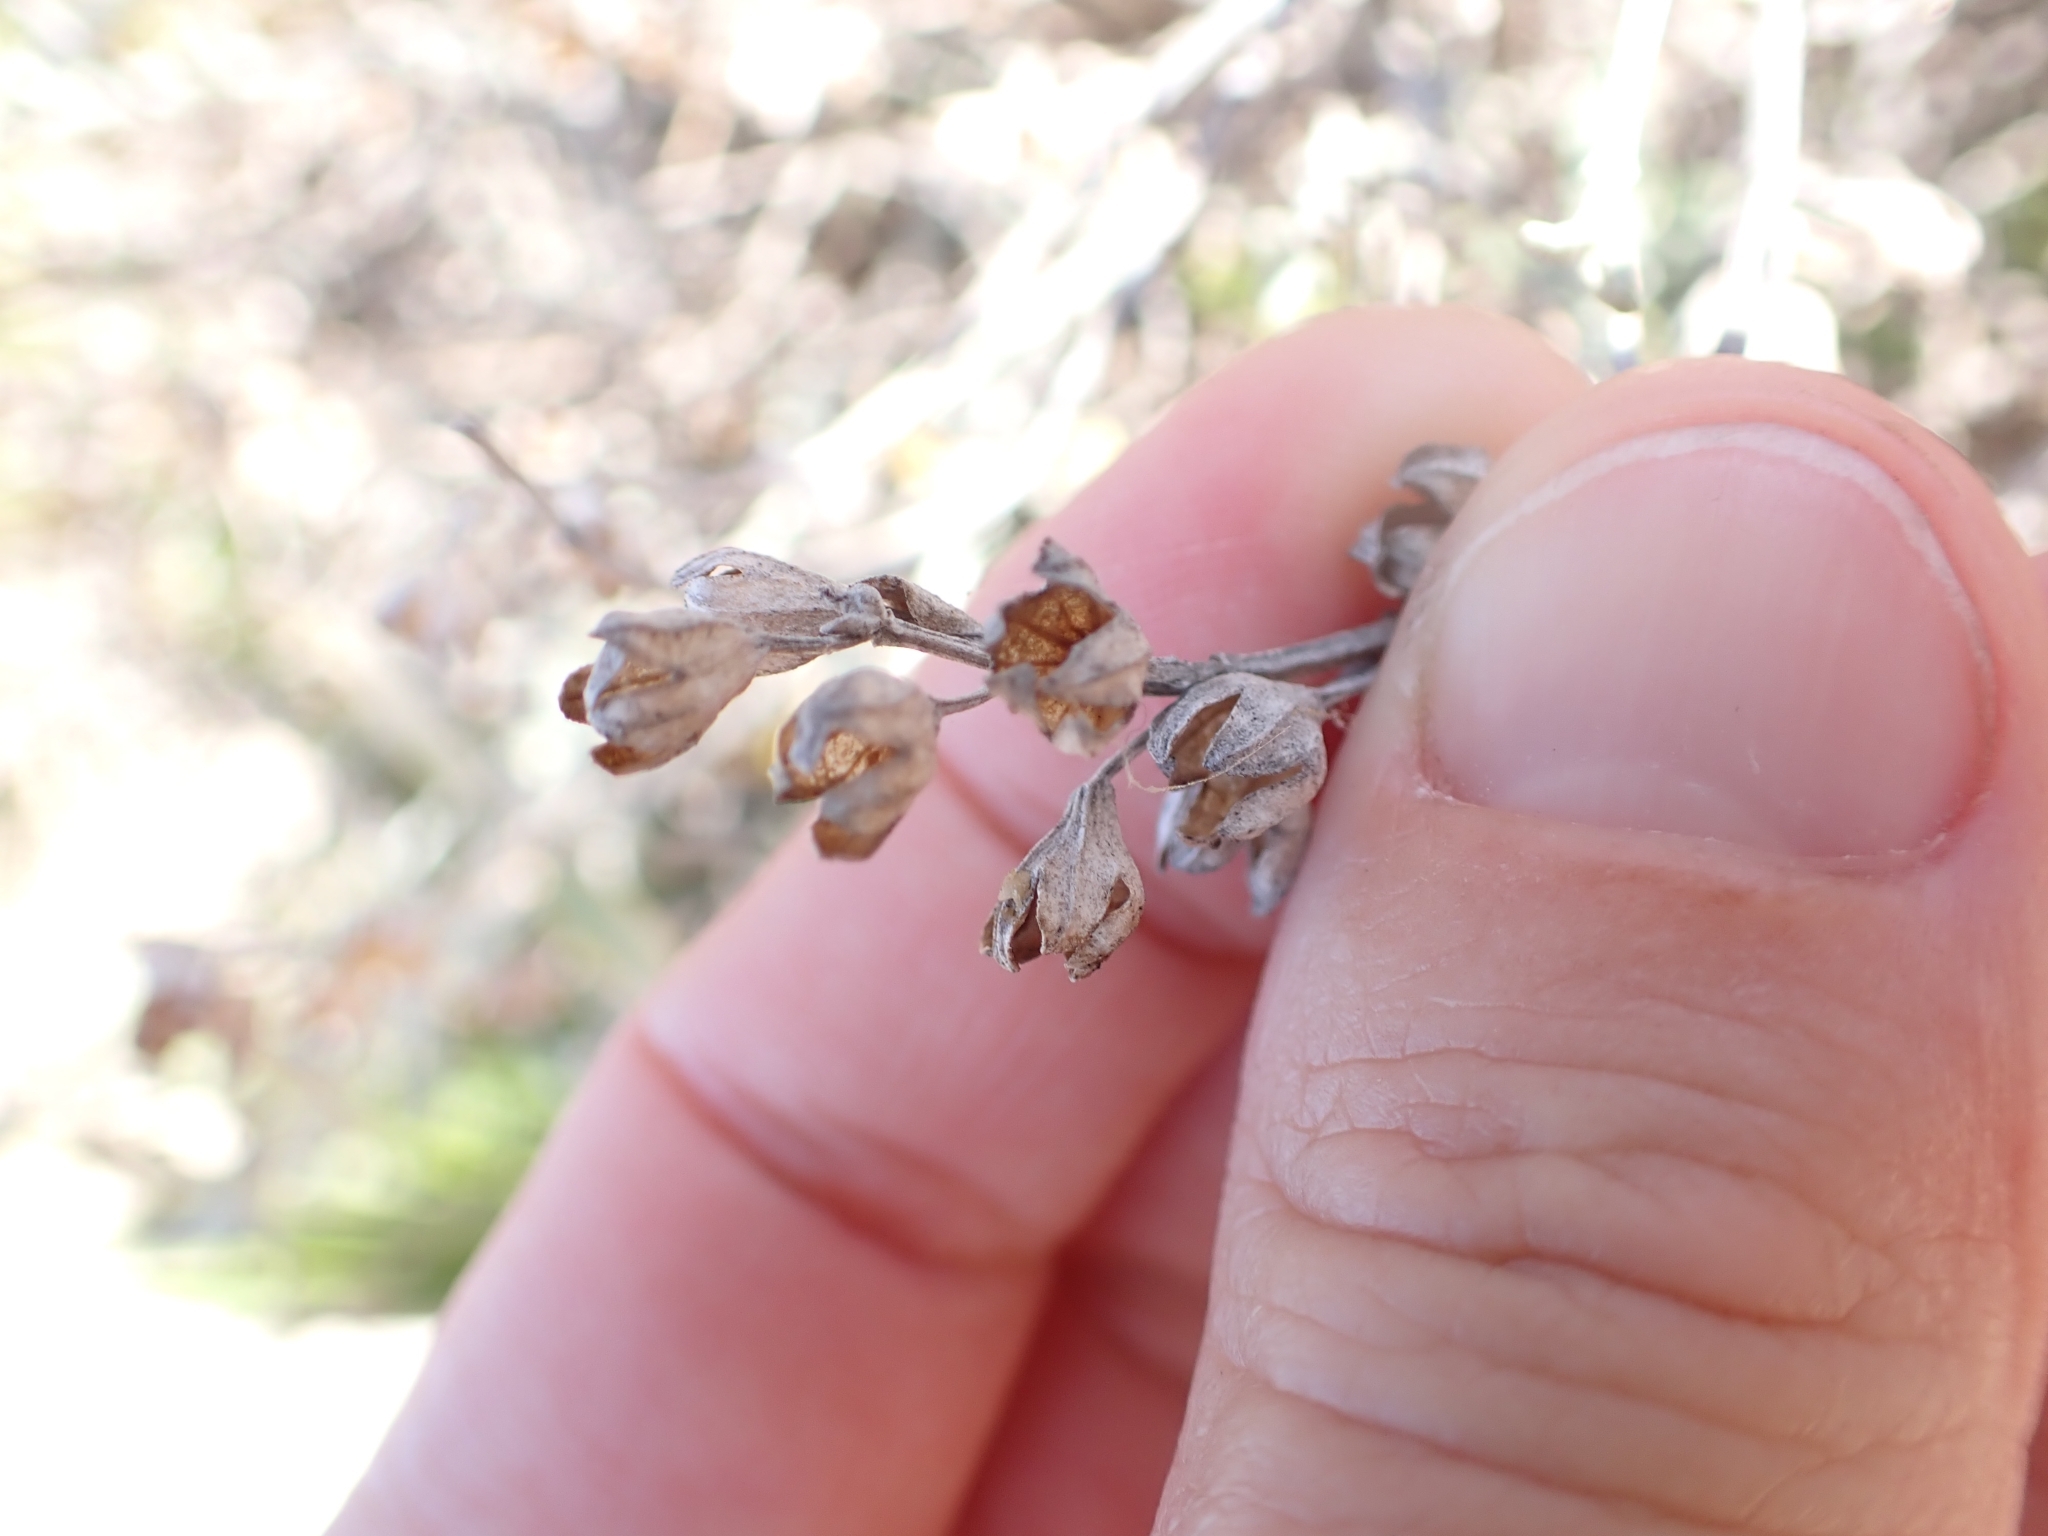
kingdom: Plantae
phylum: Tracheophyta
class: Magnoliopsida
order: Lamiales
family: Lamiaceae
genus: Teucrium
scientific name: Teucrium fruticans
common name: Shrubby germander
